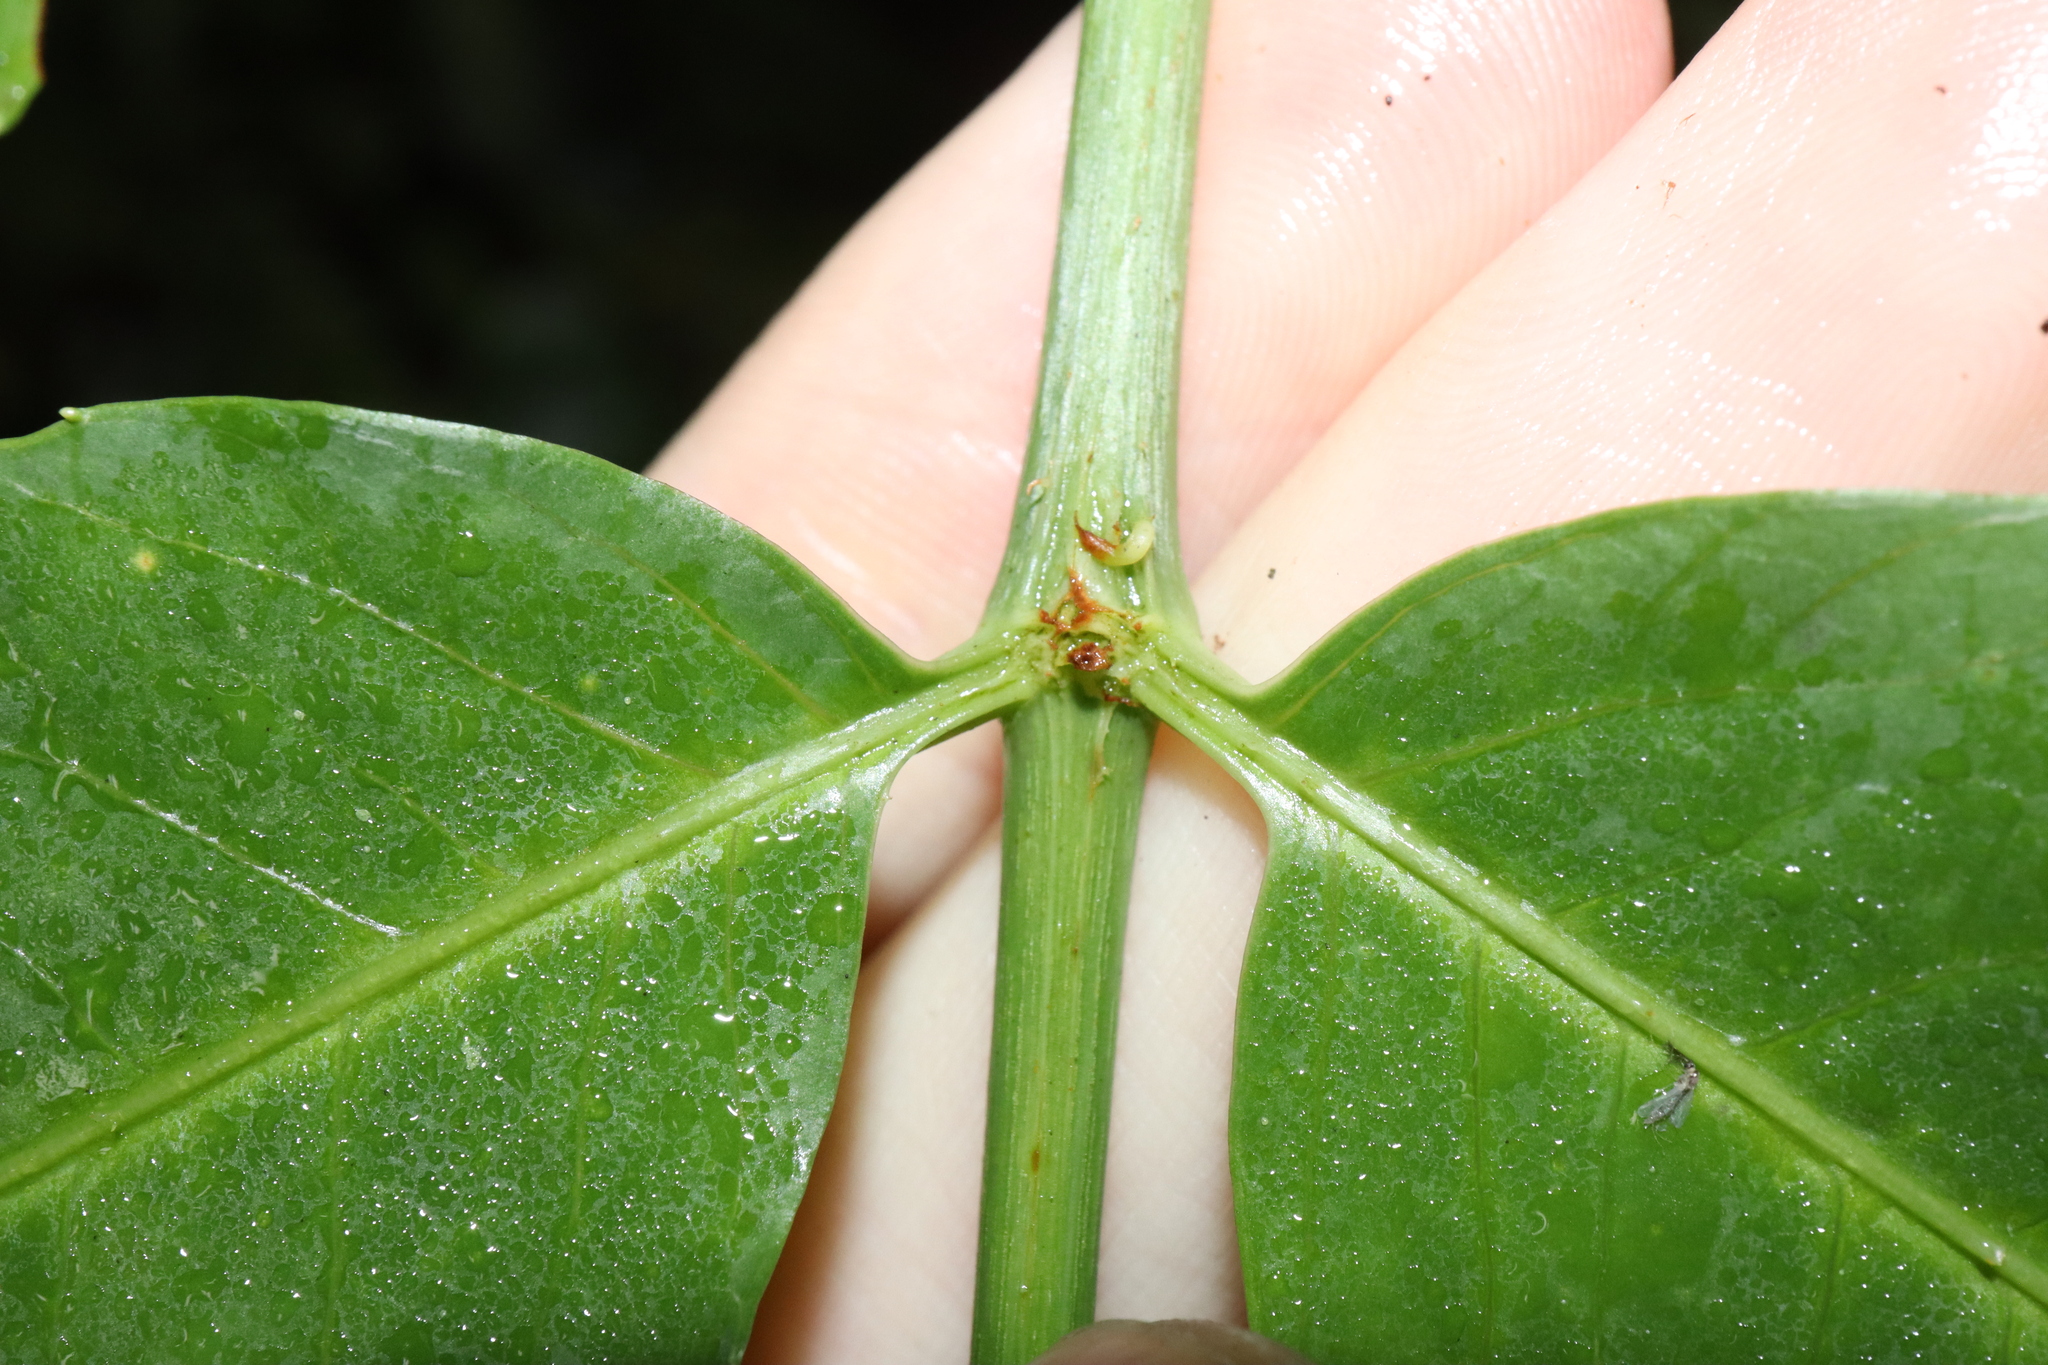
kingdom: Plantae
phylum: Tracheophyta
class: Magnoliopsida
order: Apiales
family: Araliaceae
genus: Polyscias
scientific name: Polyscias murrayi
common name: Pencil cedar
